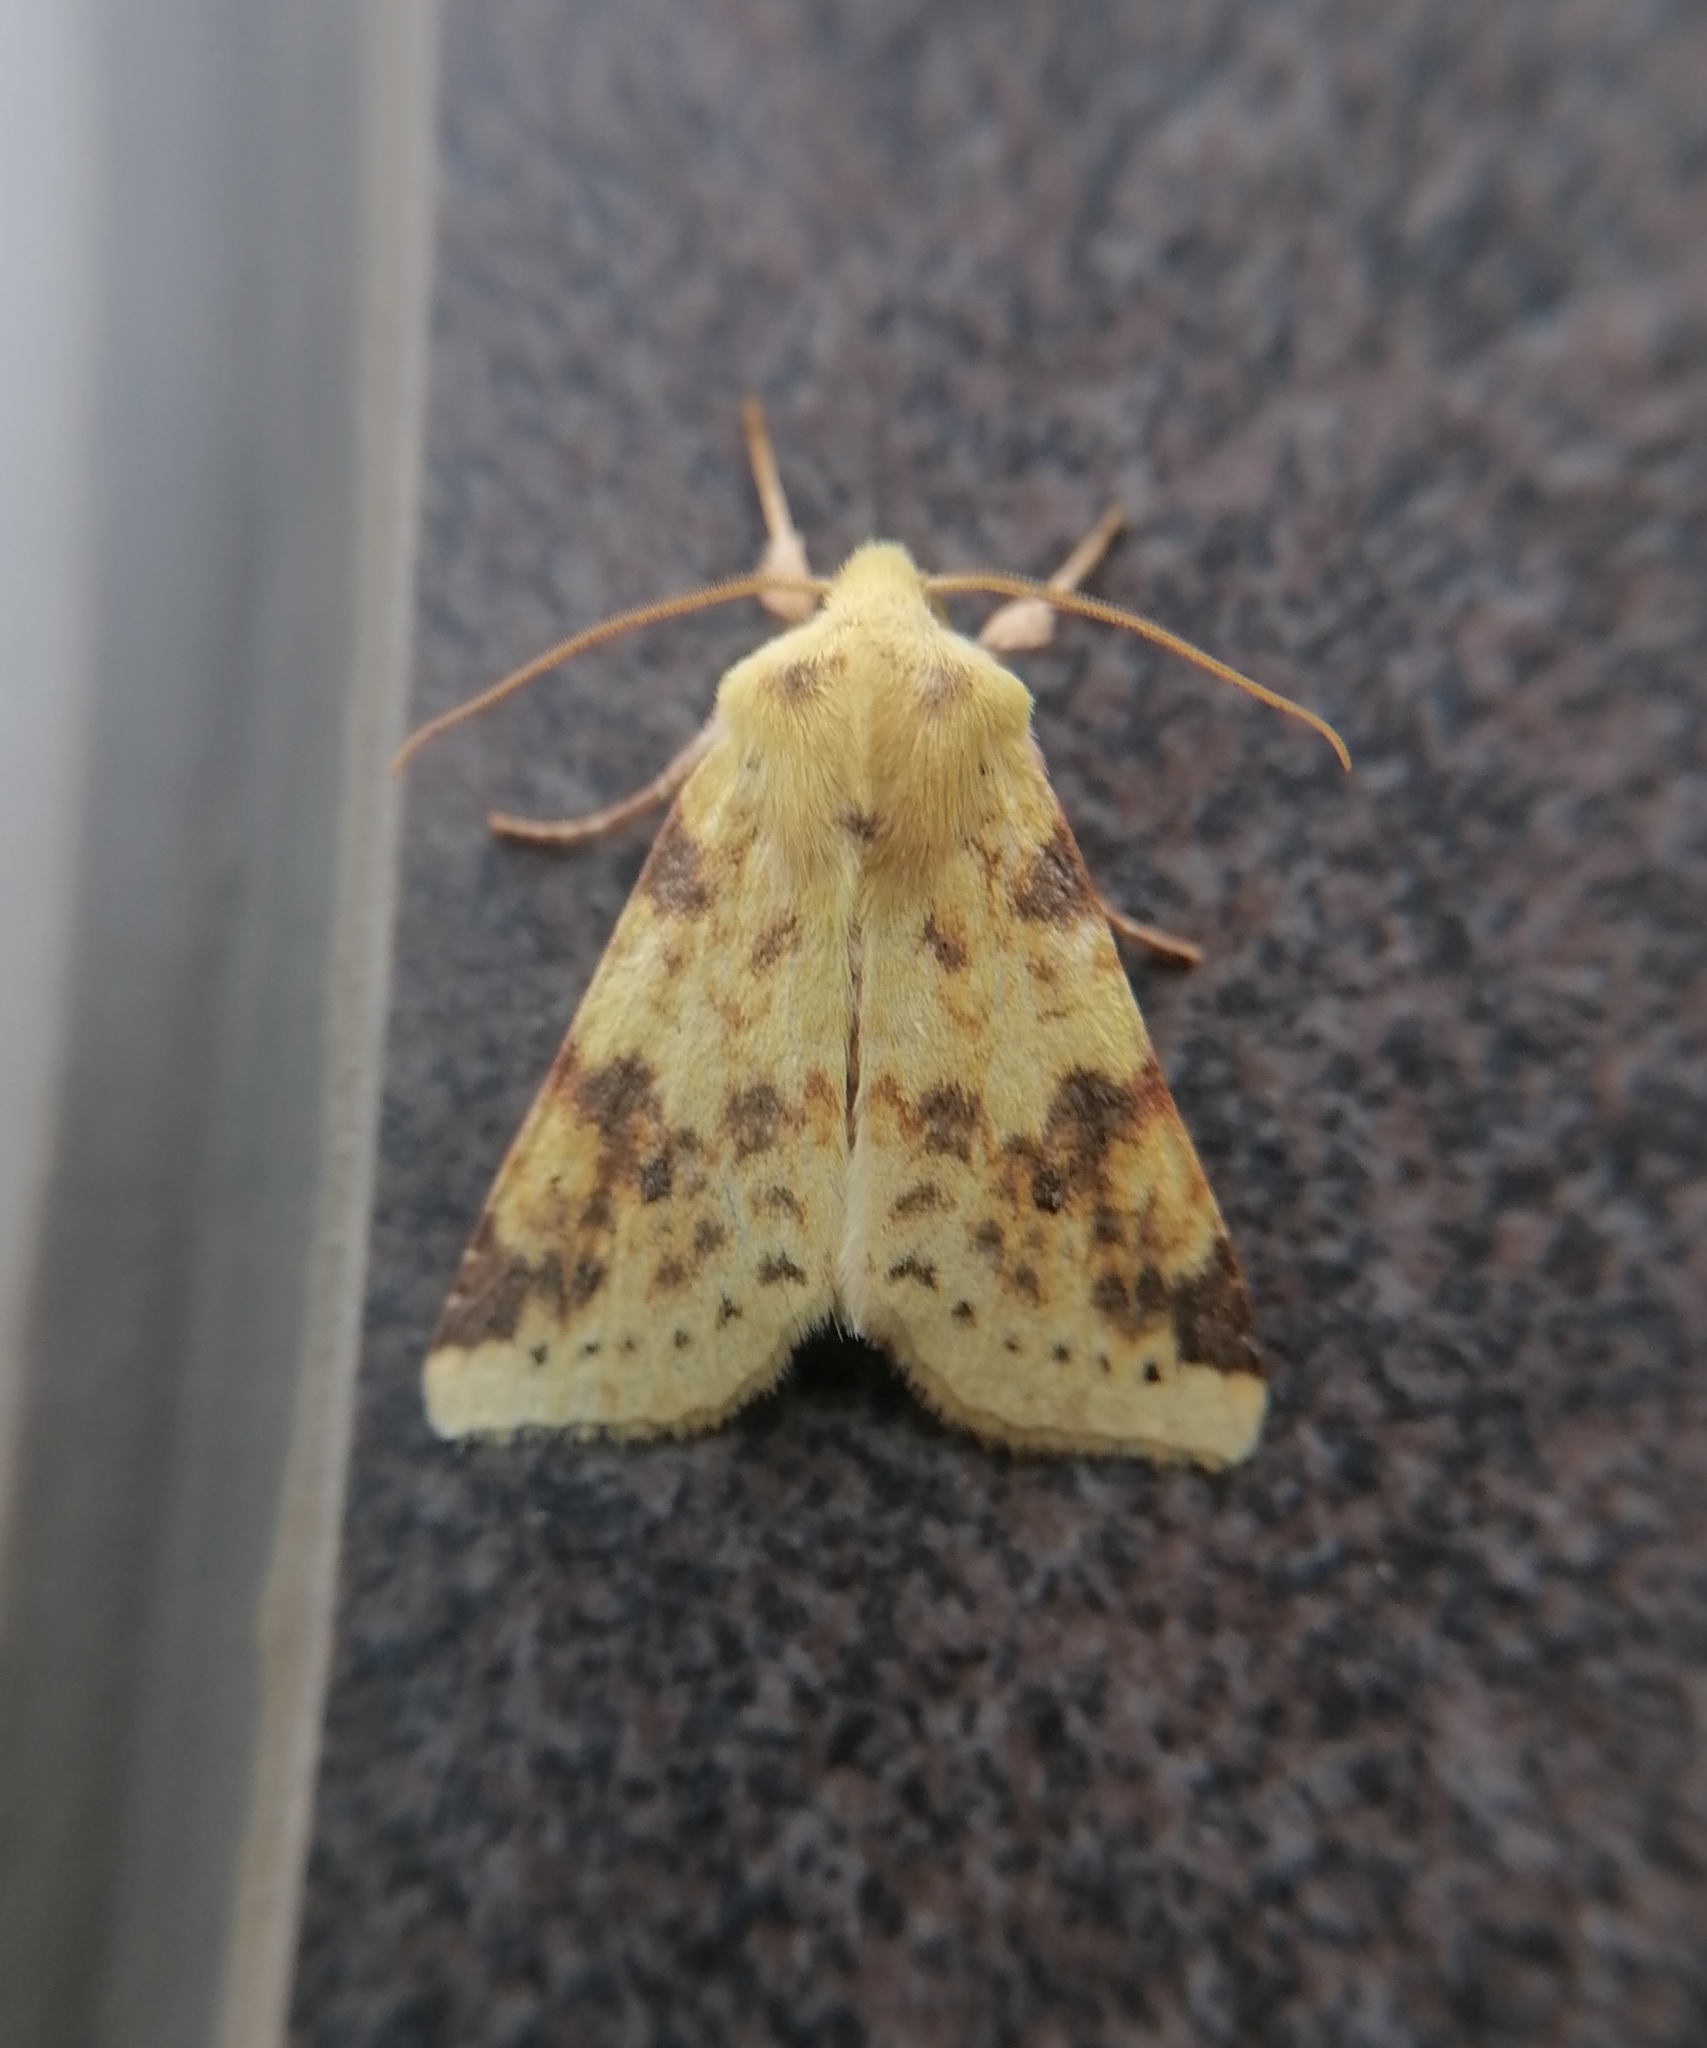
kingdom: Animalia
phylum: Arthropoda
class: Insecta
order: Lepidoptera
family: Noctuidae
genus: Xanthia
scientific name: Xanthia icteritia
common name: The sallow
